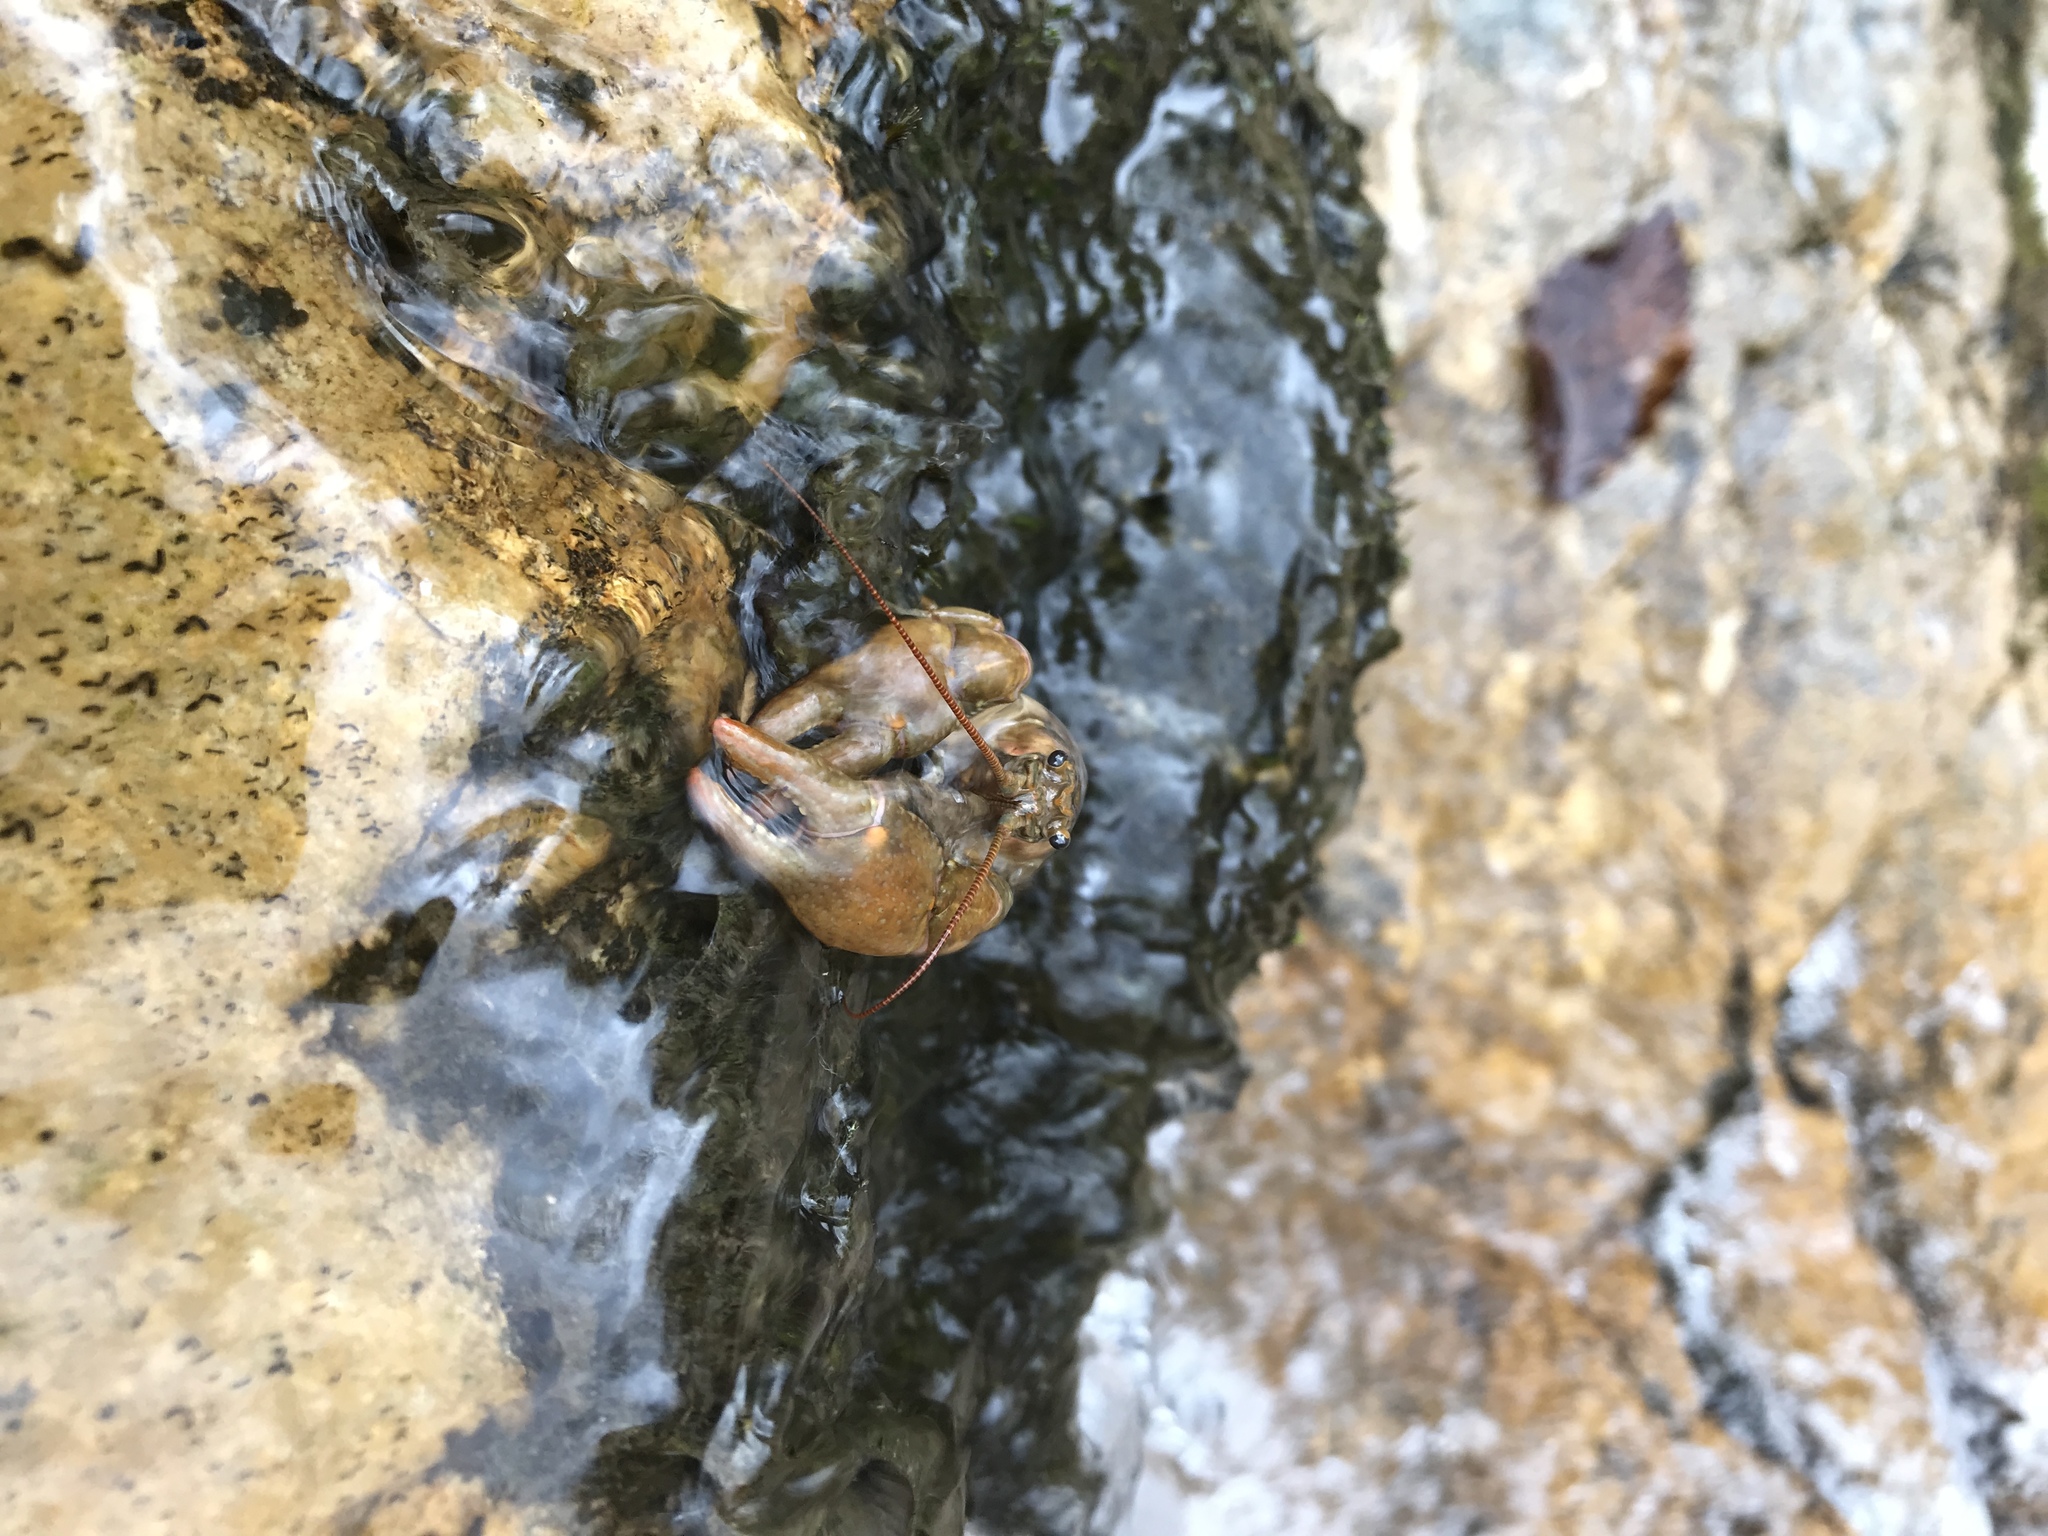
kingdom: Animalia
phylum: Arthropoda
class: Malacostraca
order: Decapoda
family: Cambaridae
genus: Faxonius
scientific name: Faxonius medius
